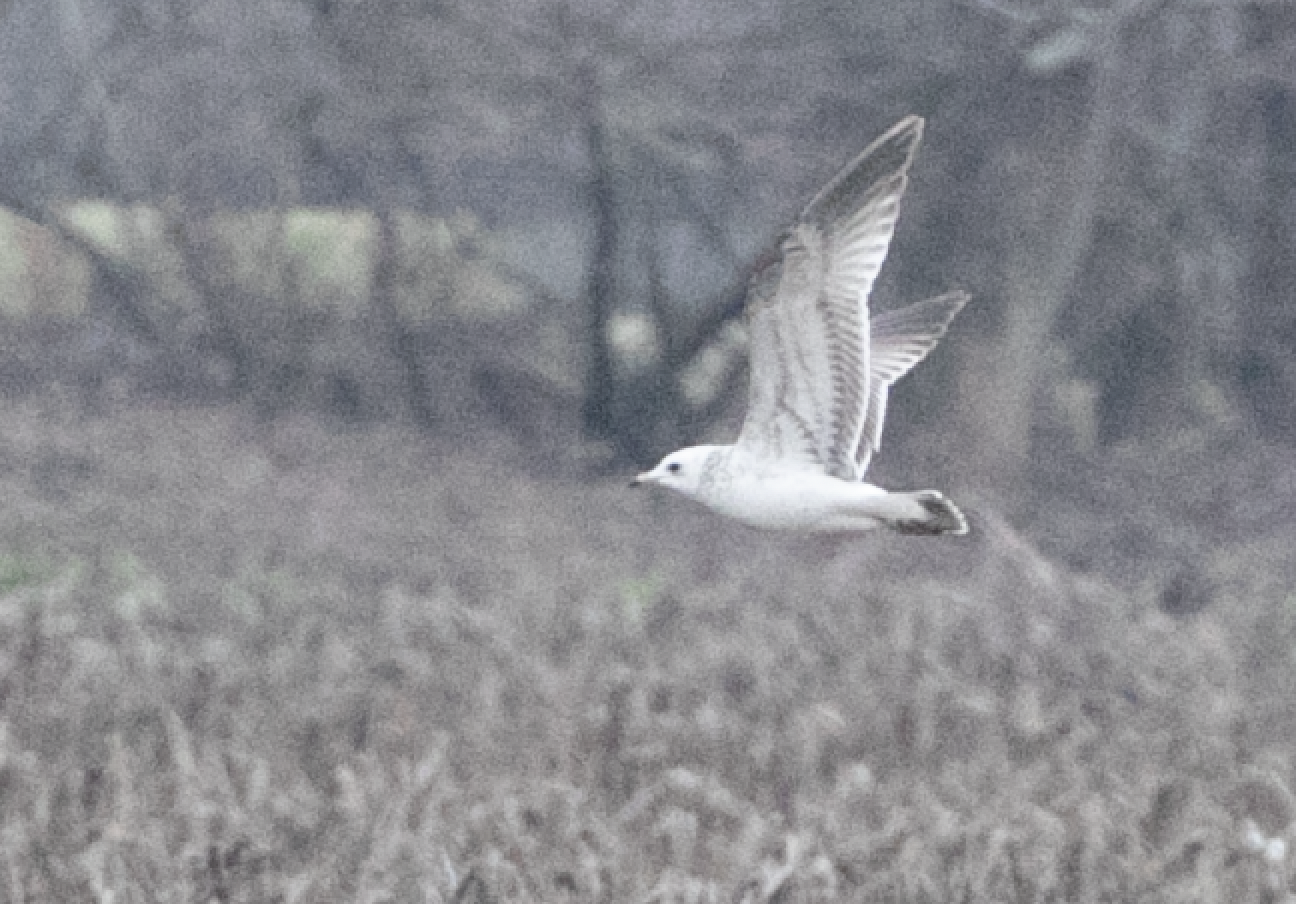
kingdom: Animalia
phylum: Chordata
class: Aves
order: Charadriiformes
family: Laridae
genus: Larus
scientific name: Larus canus
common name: Mew gull
